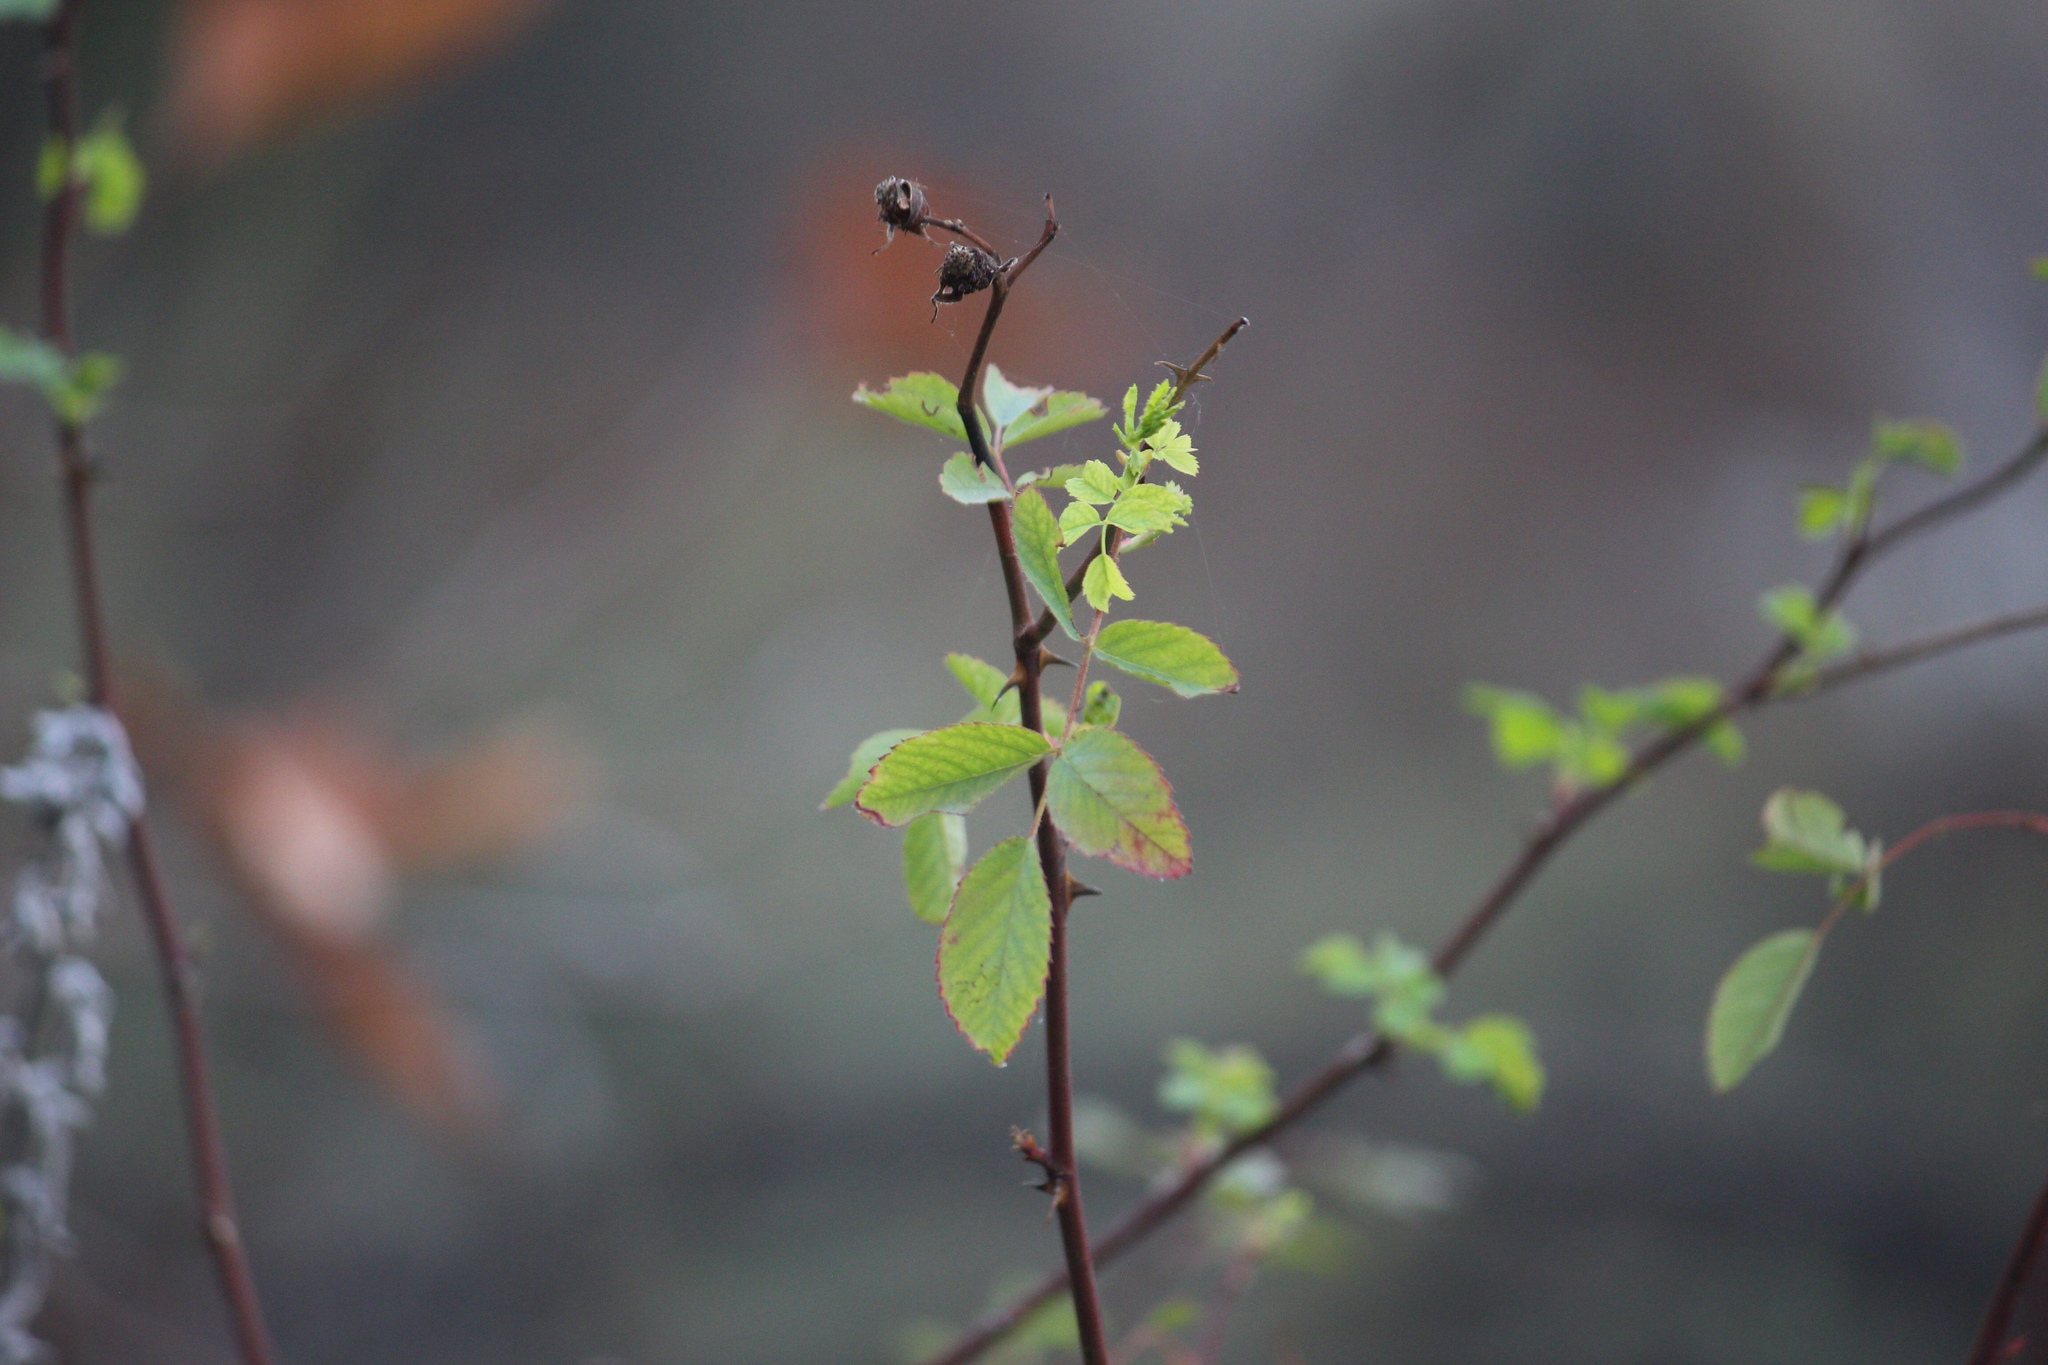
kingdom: Plantae
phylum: Tracheophyta
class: Magnoliopsida
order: Rosales
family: Rosaceae
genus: Rosa
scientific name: Rosa californica
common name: California rose
